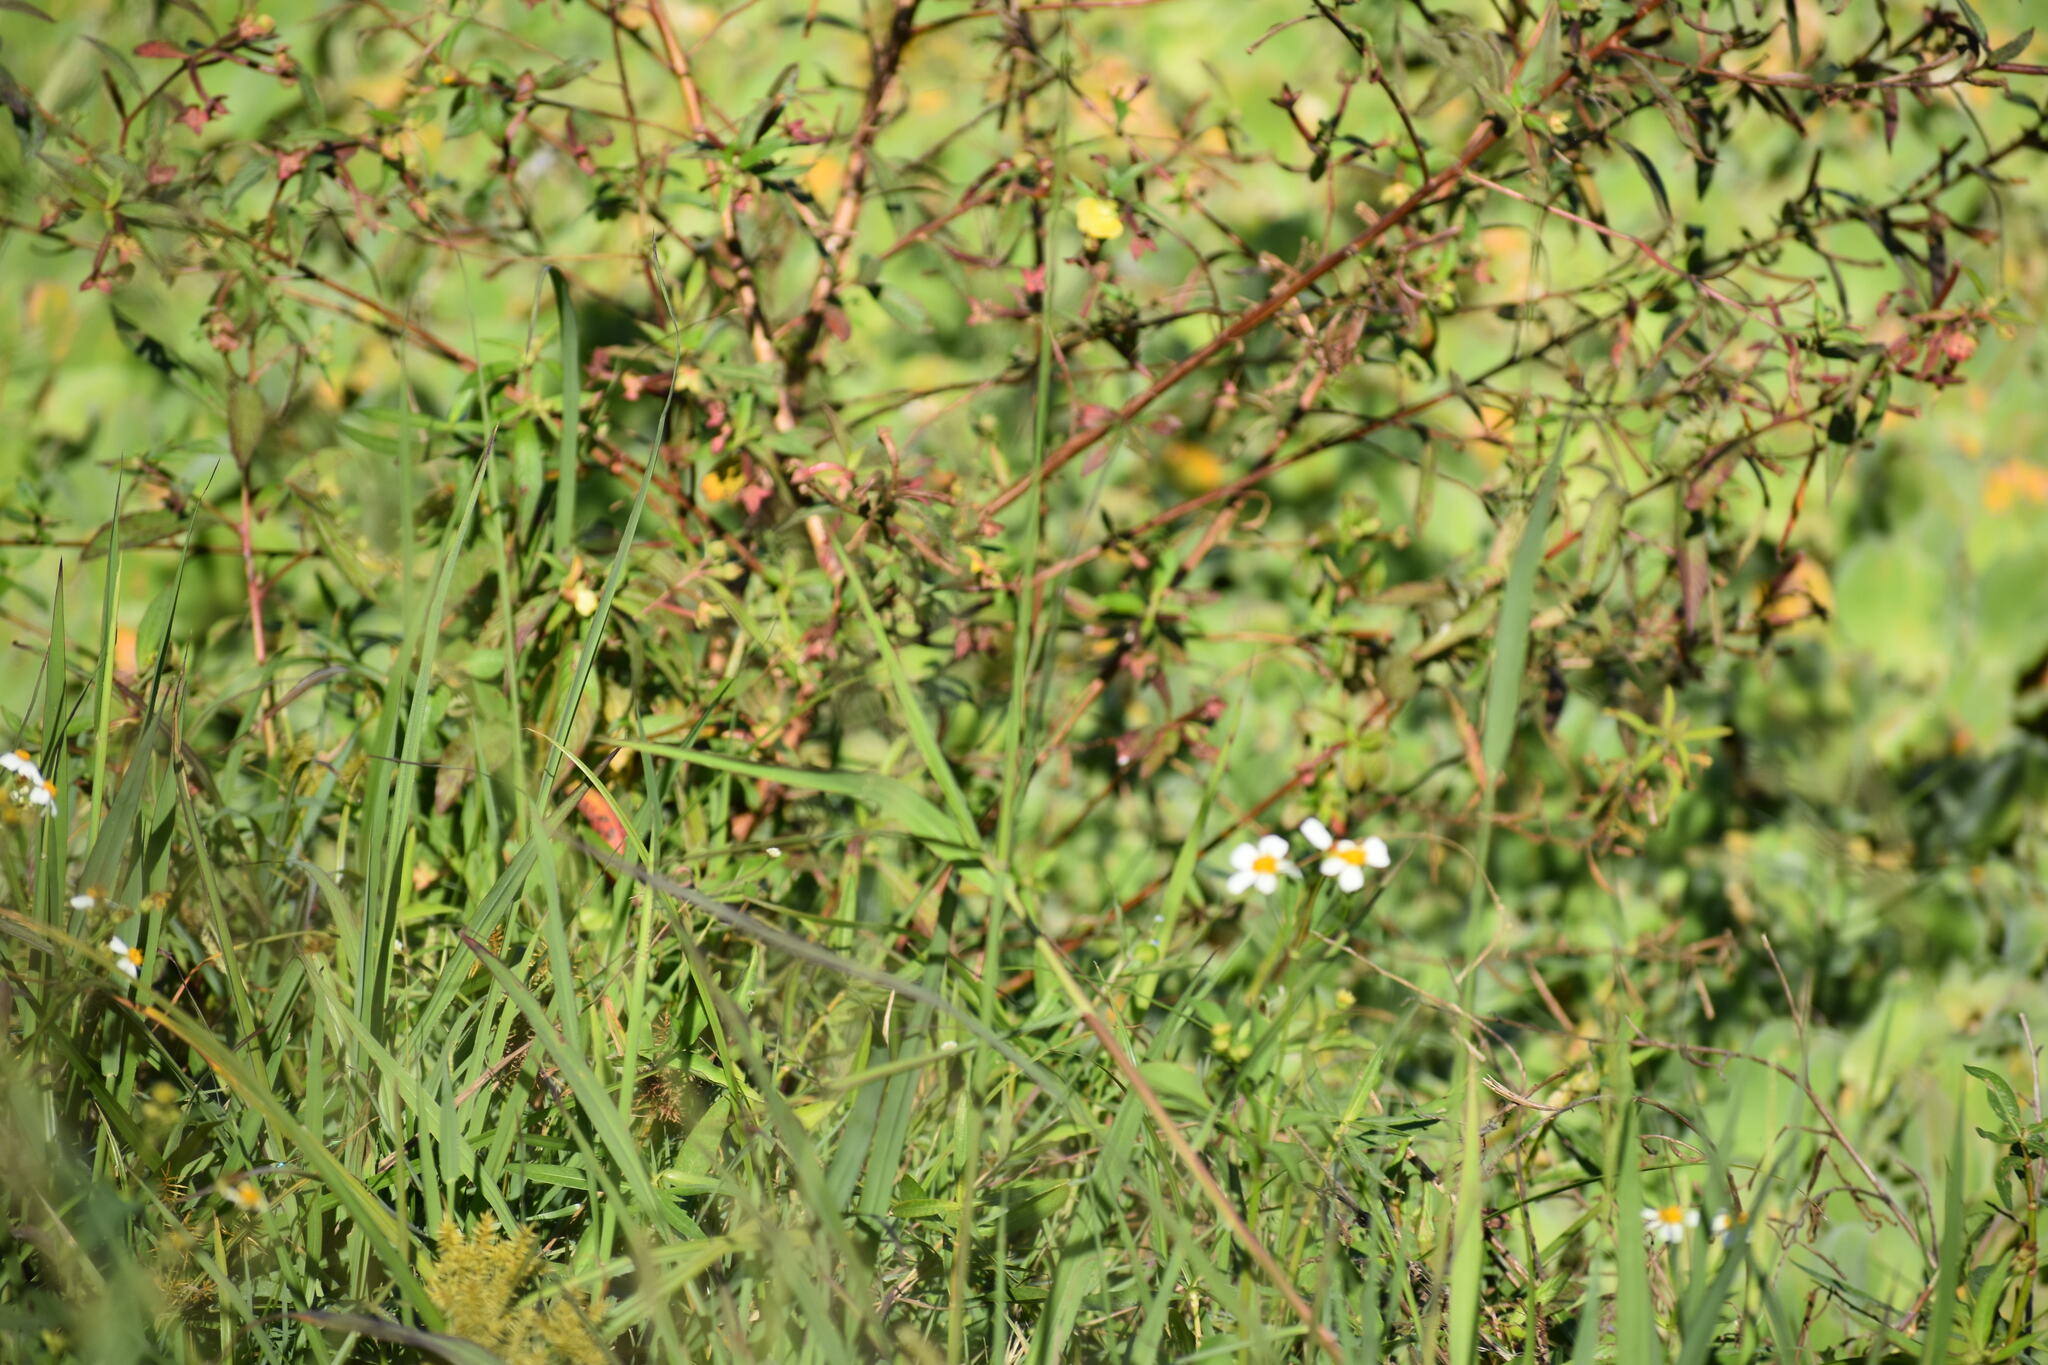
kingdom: Plantae
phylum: Tracheophyta
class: Magnoliopsida
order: Asterales
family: Asteraceae
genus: Bidens
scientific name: Bidens alba
